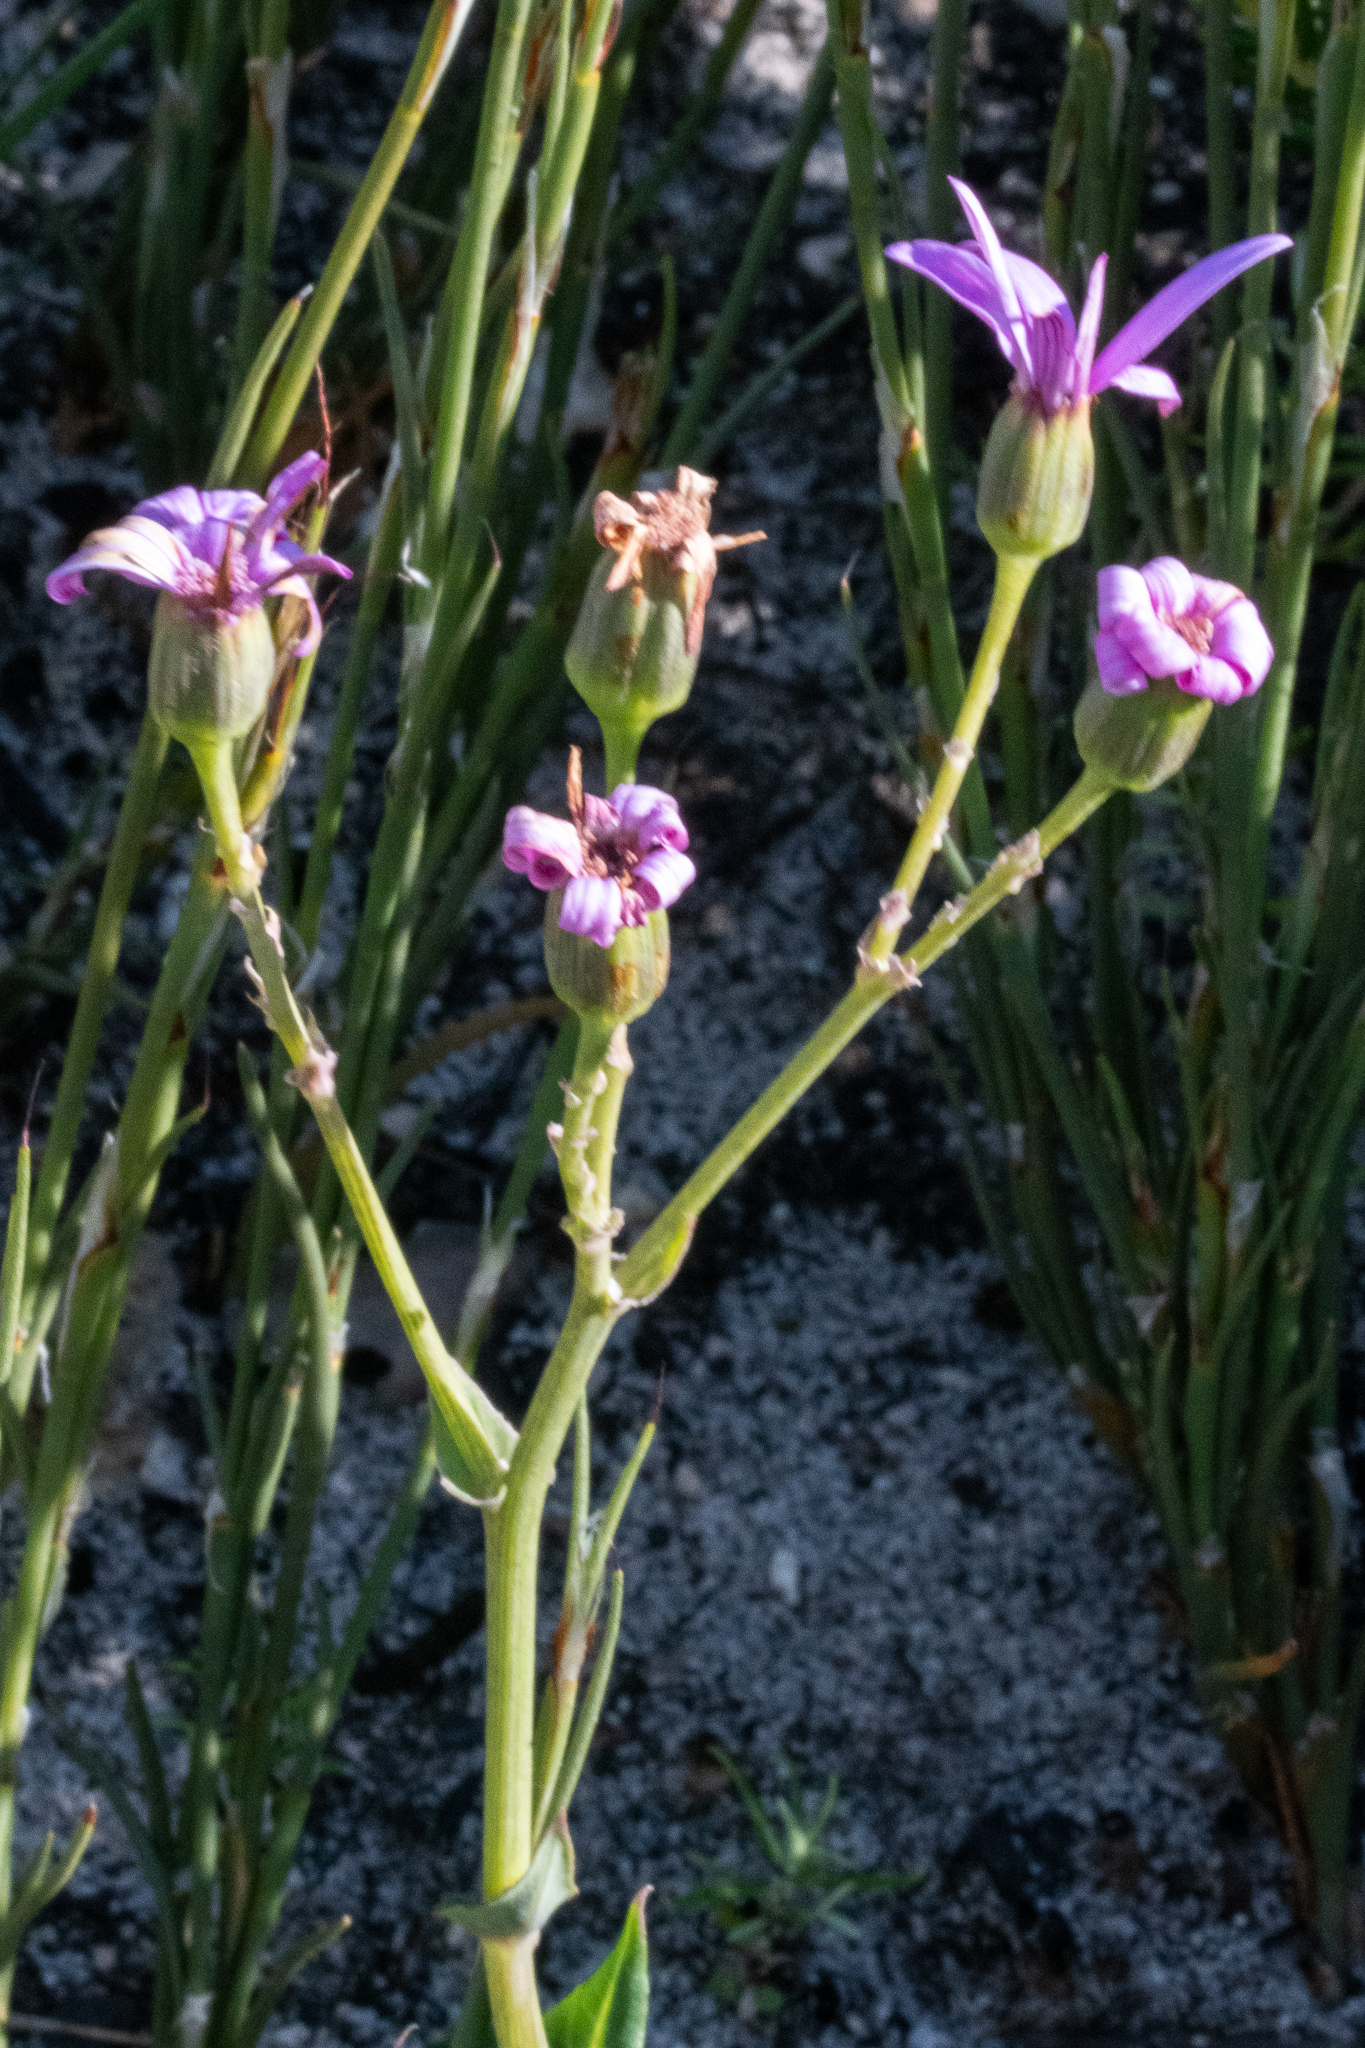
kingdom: Plantae
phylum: Tracheophyta
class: Magnoliopsida
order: Asterales
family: Asteraceae
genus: Senecio
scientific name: Senecio cymbalariifolius
